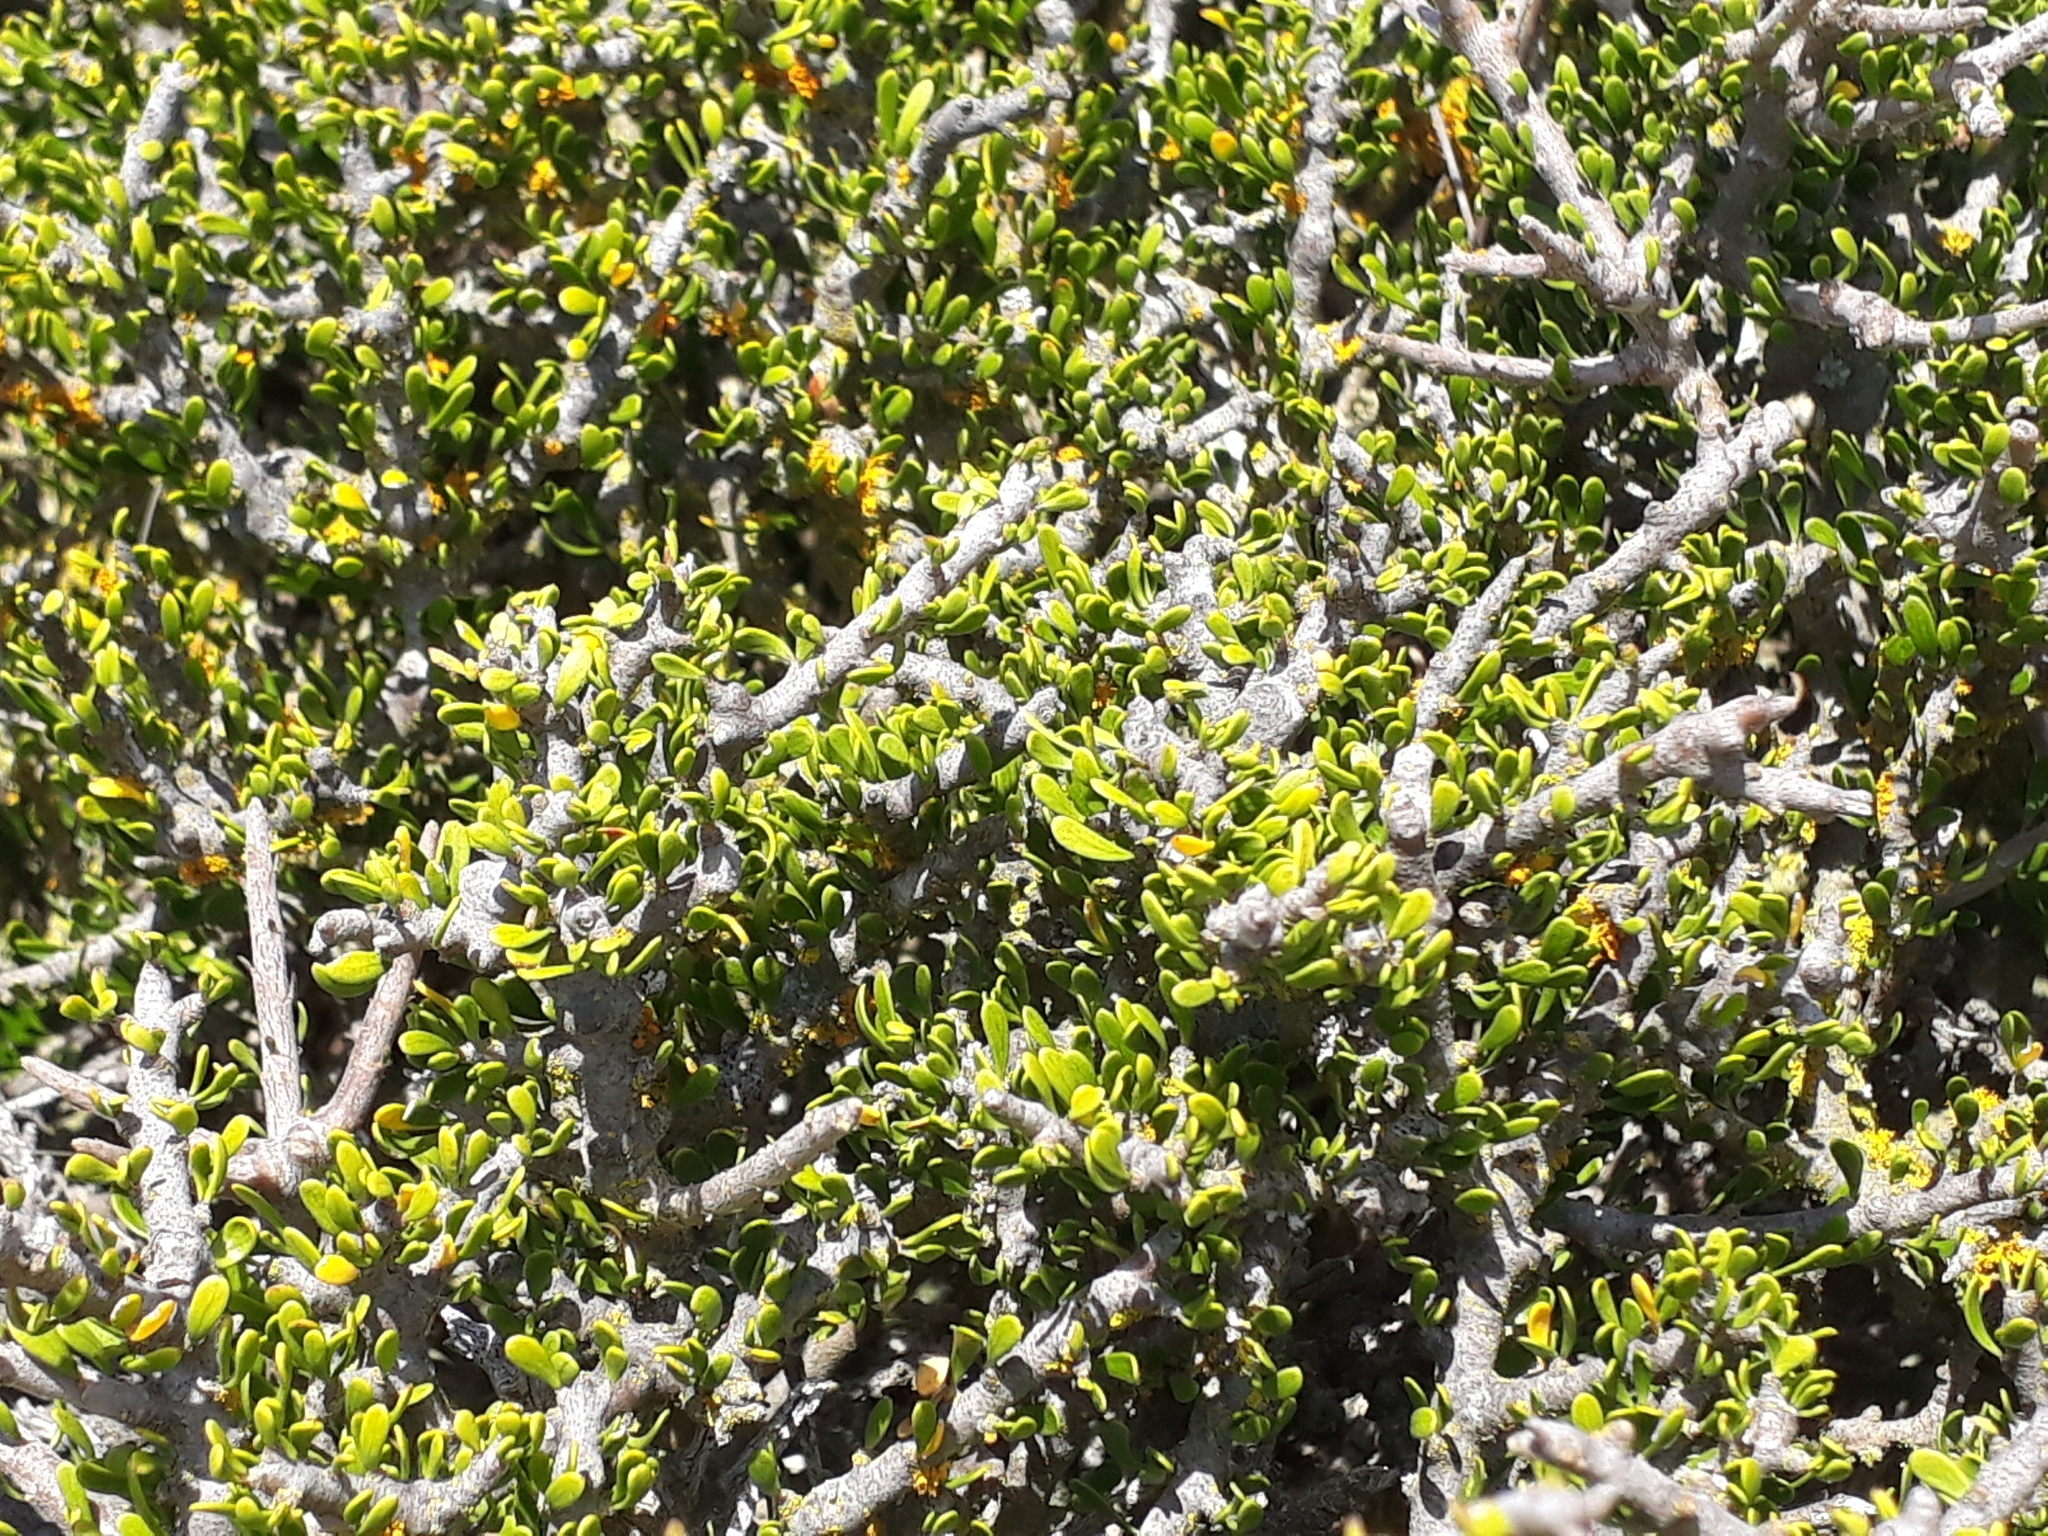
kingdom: Plantae
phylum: Tracheophyta
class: Magnoliopsida
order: Malpighiales
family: Violaceae
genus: Melicytus
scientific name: Melicytus alpinus
